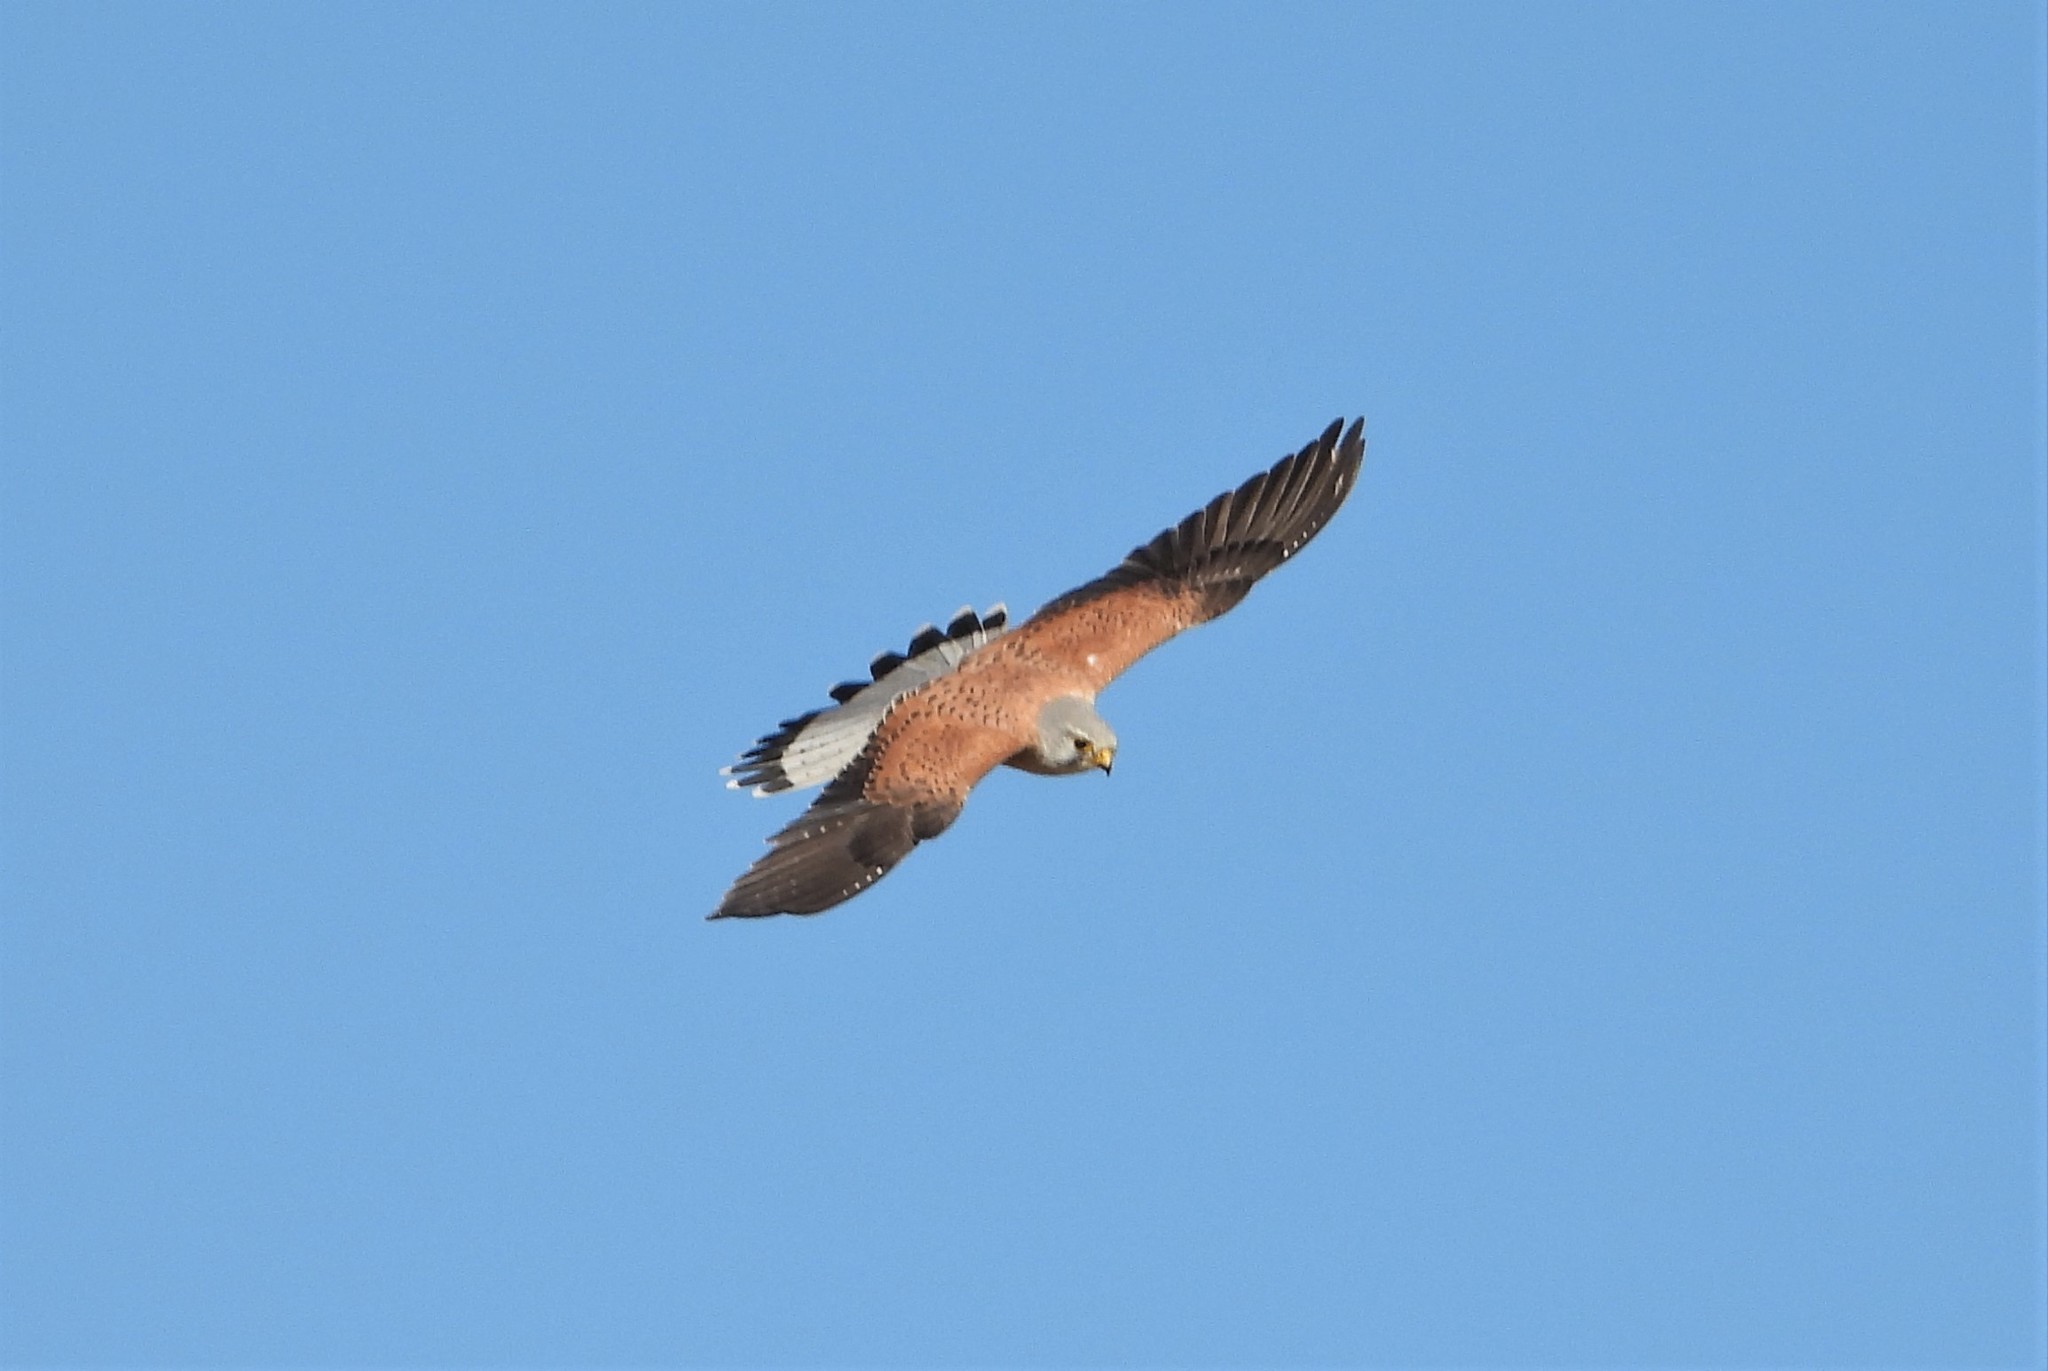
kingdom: Animalia
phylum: Chordata
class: Aves
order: Falconiformes
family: Falconidae
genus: Falco
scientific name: Falco tinnunculus
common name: Common kestrel
